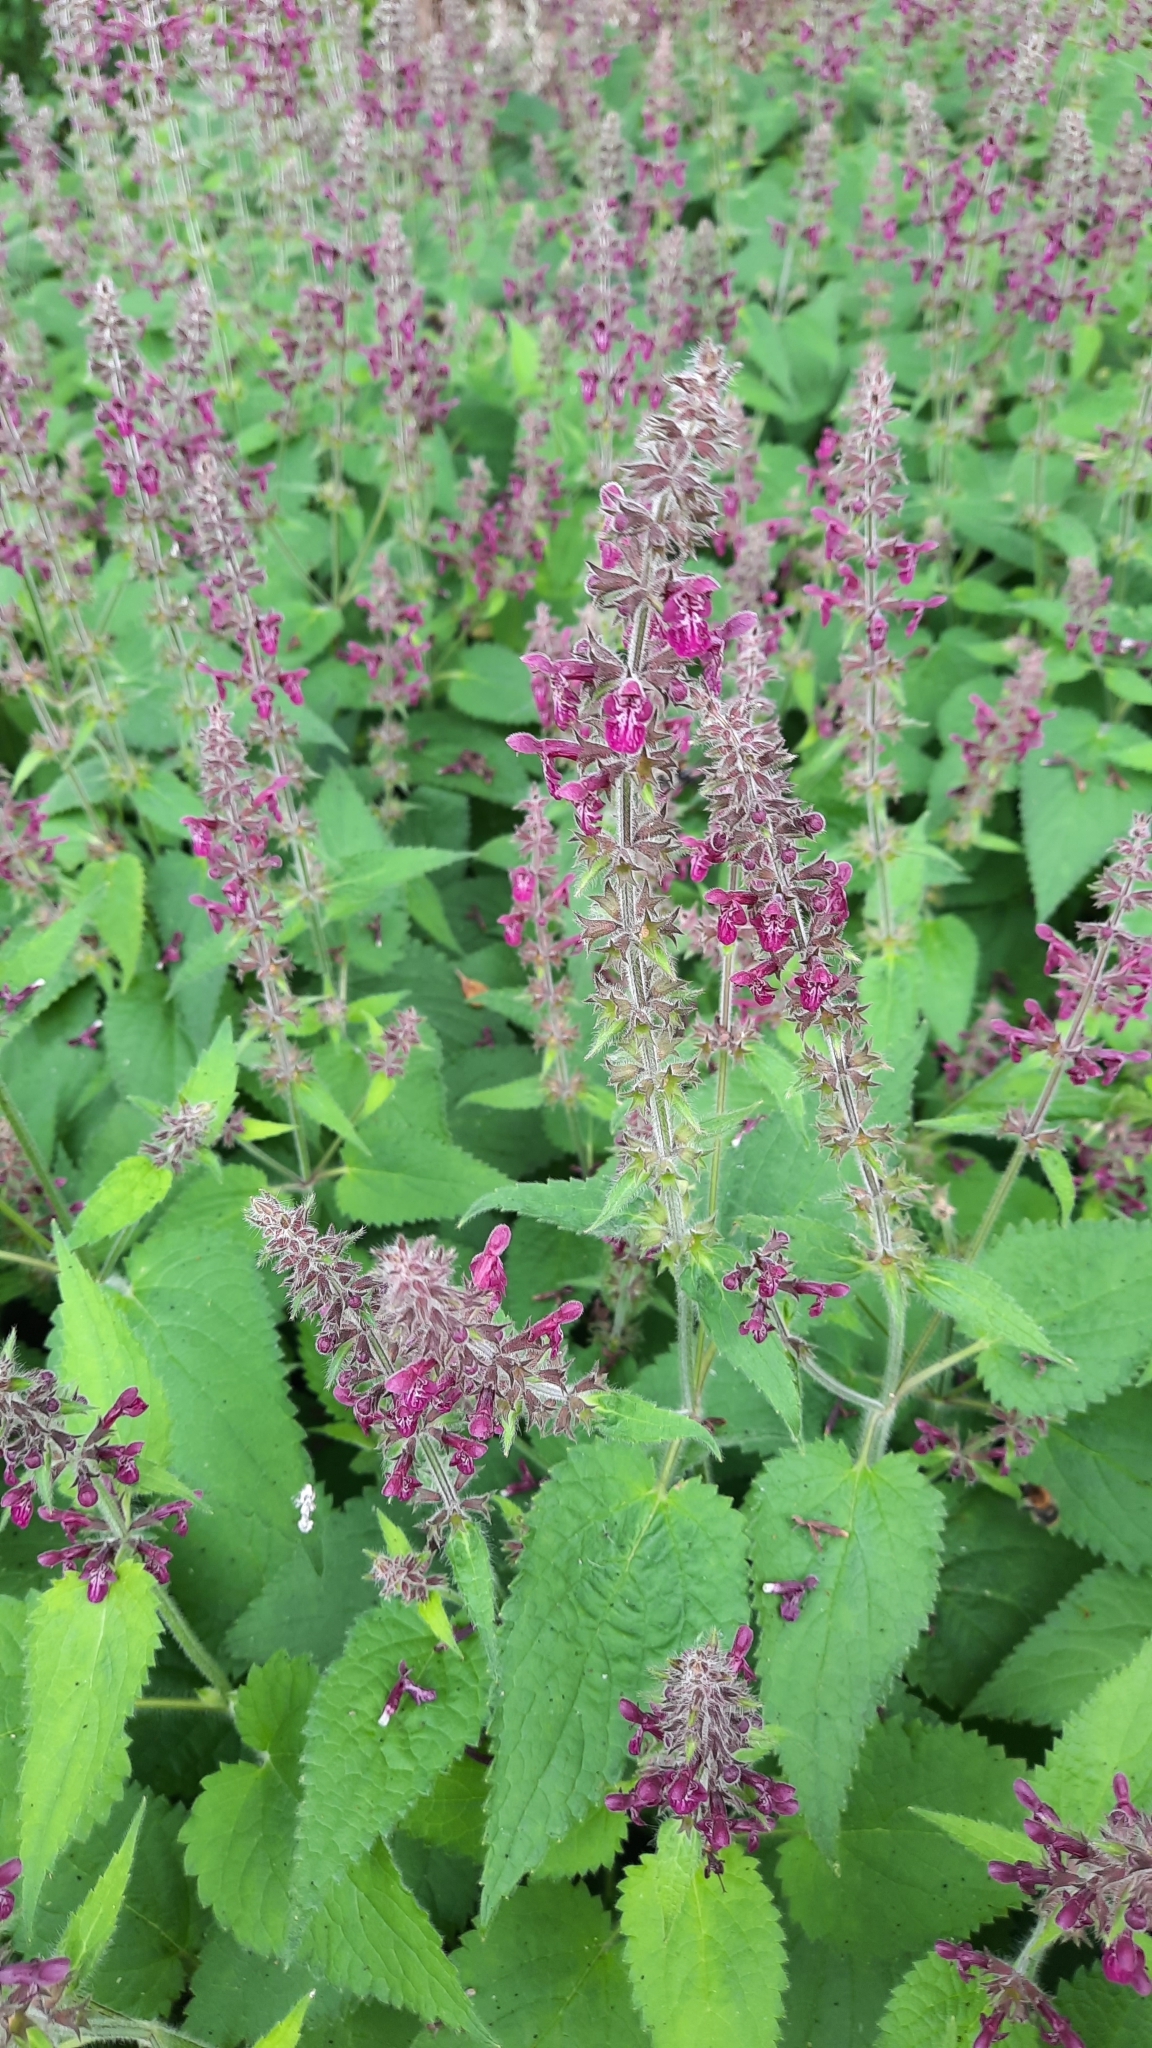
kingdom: Plantae
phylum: Tracheophyta
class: Magnoliopsida
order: Lamiales
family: Lamiaceae
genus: Stachys
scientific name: Stachys sylvatica
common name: Hedge woundwort
